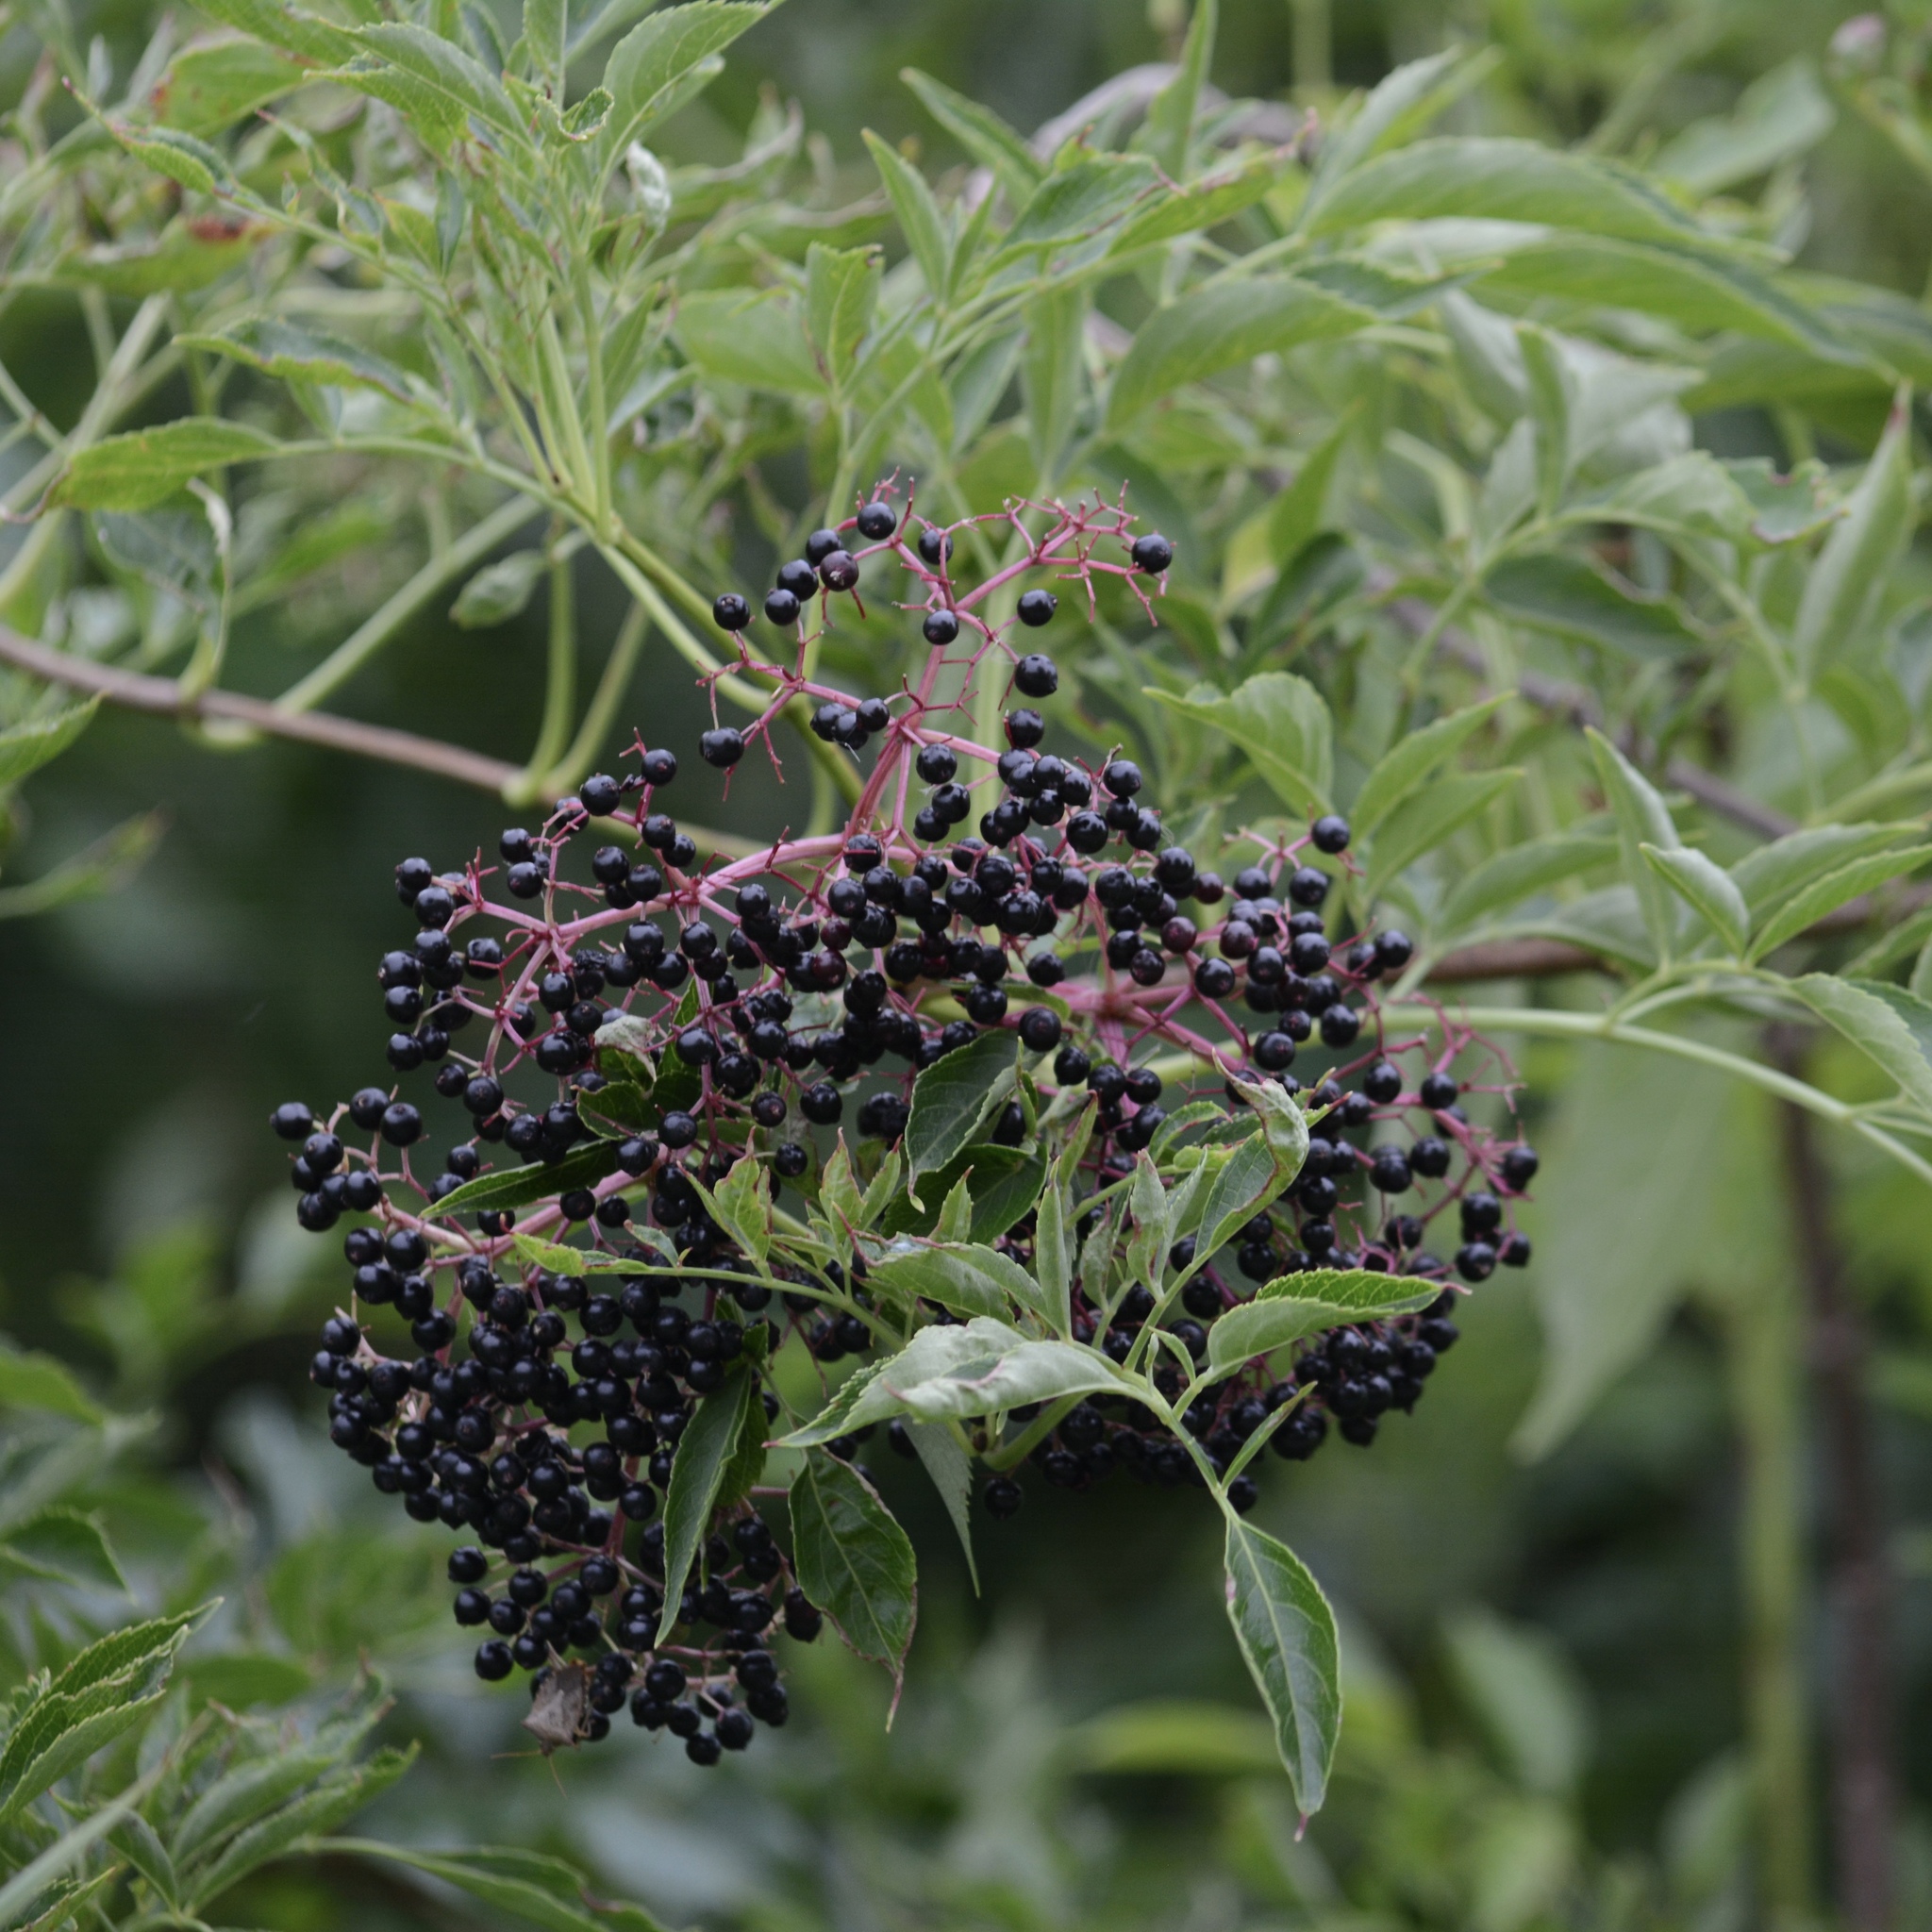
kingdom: Plantae
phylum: Tracheophyta
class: Magnoliopsida
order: Dipsacales
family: Viburnaceae
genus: Sambucus
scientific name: Sambucus canadensis
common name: American elder
